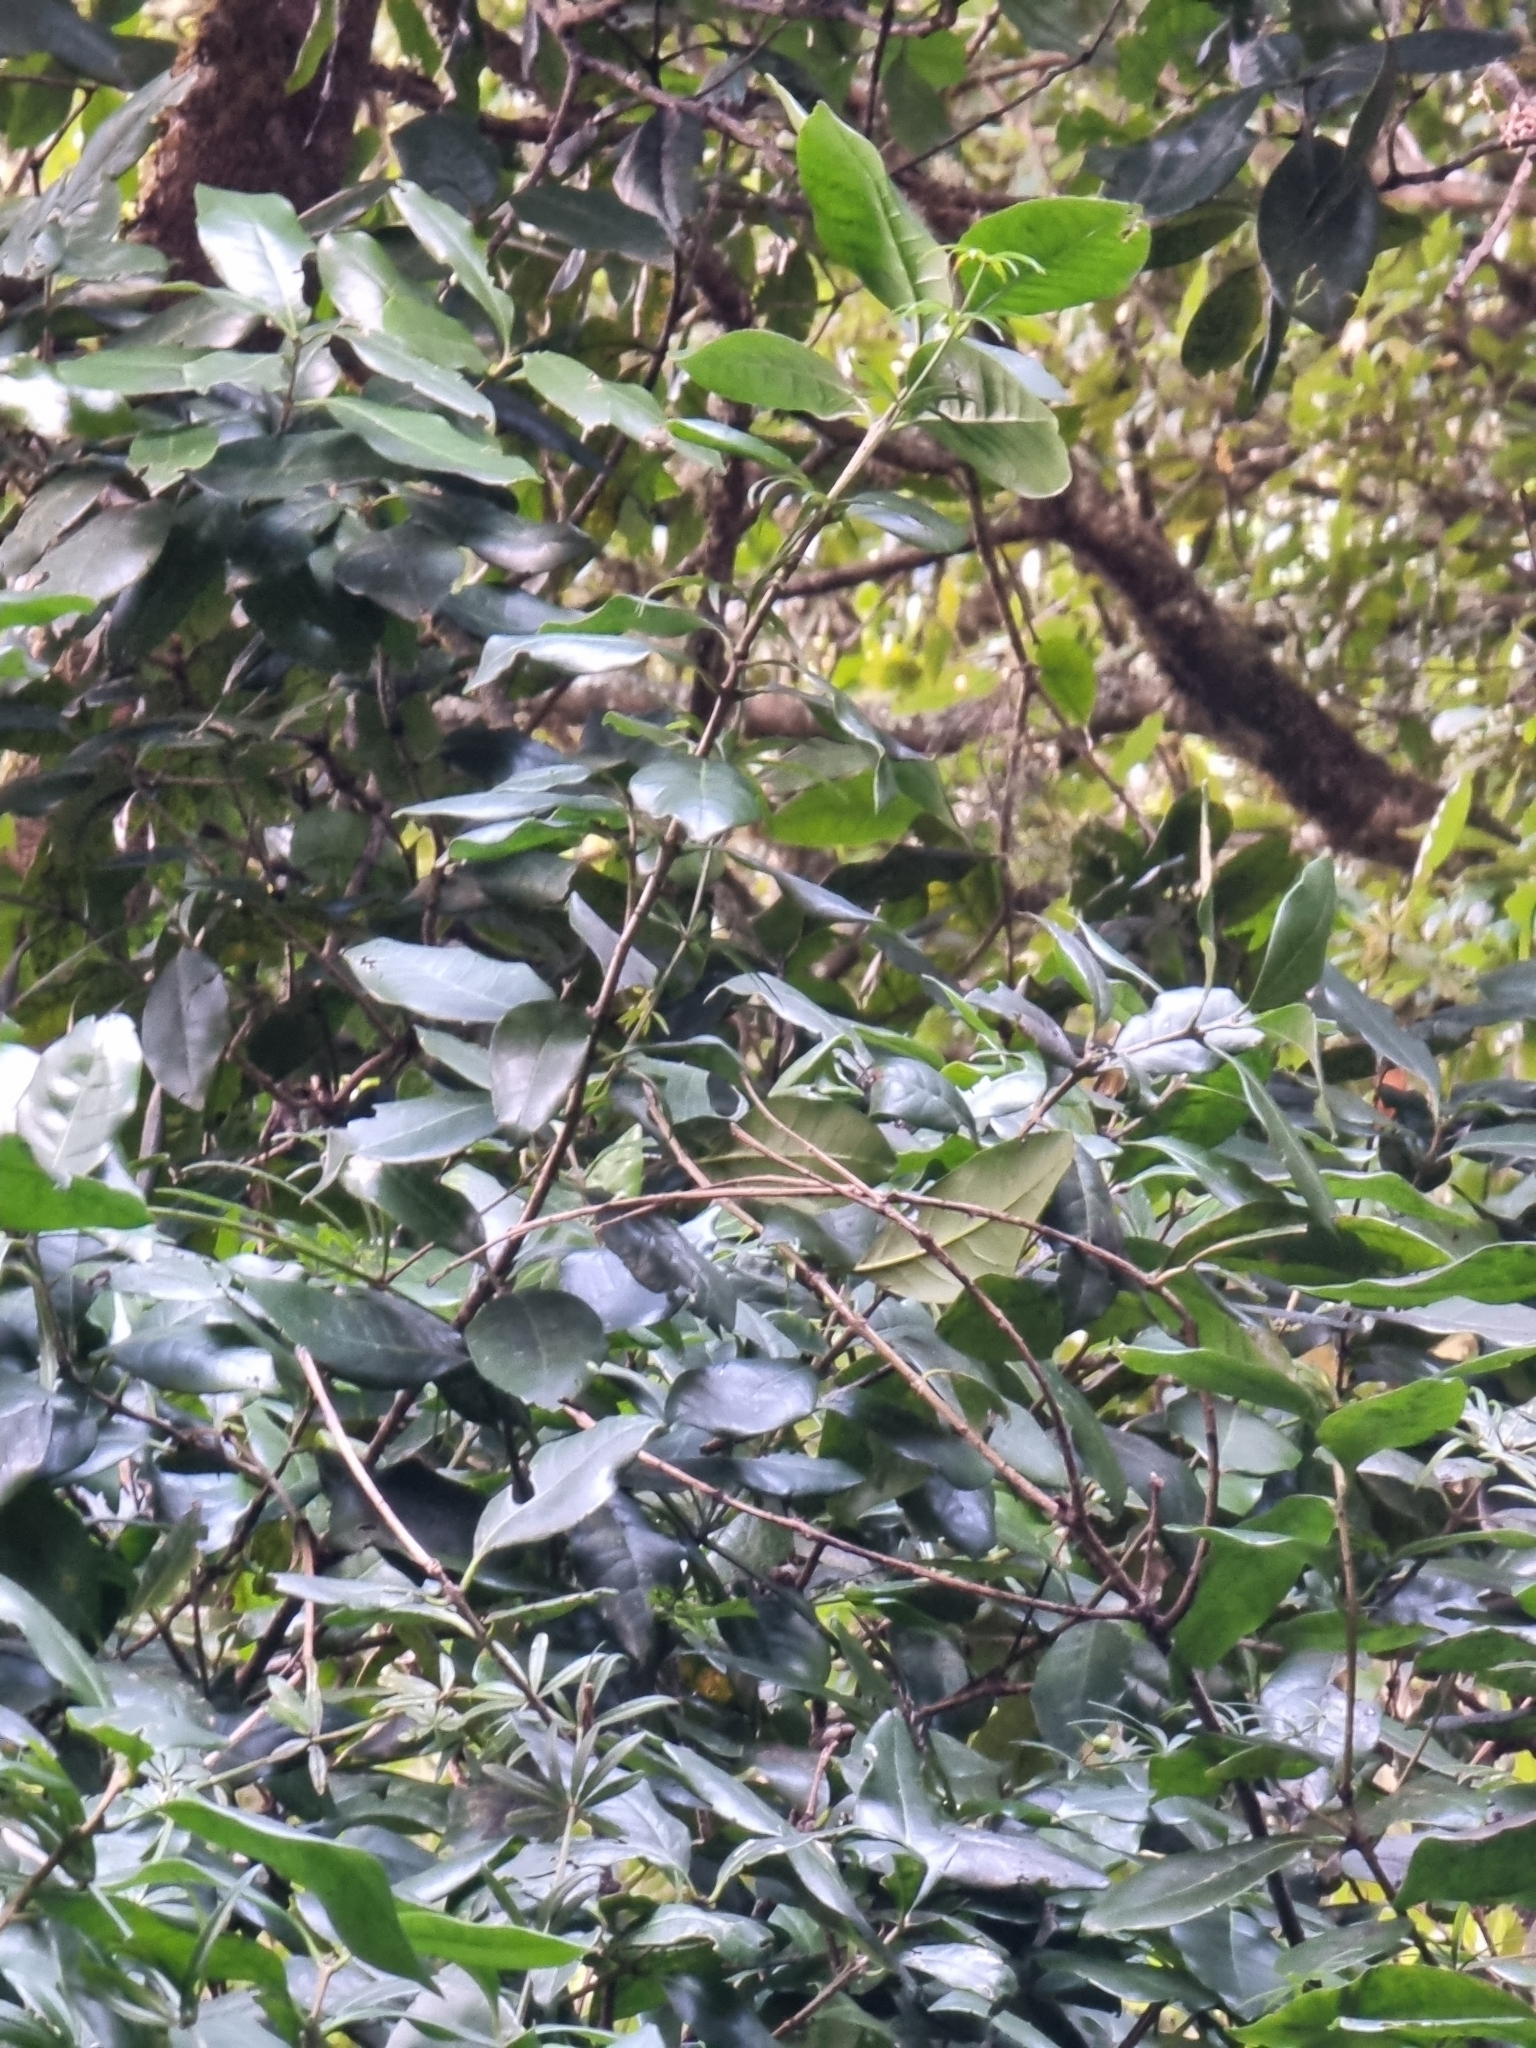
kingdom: Plantae
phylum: Tracheophyta
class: Magnoliopsida
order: Lamiales
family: Oleaceae
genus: Picconia
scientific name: Picconia excelsa
